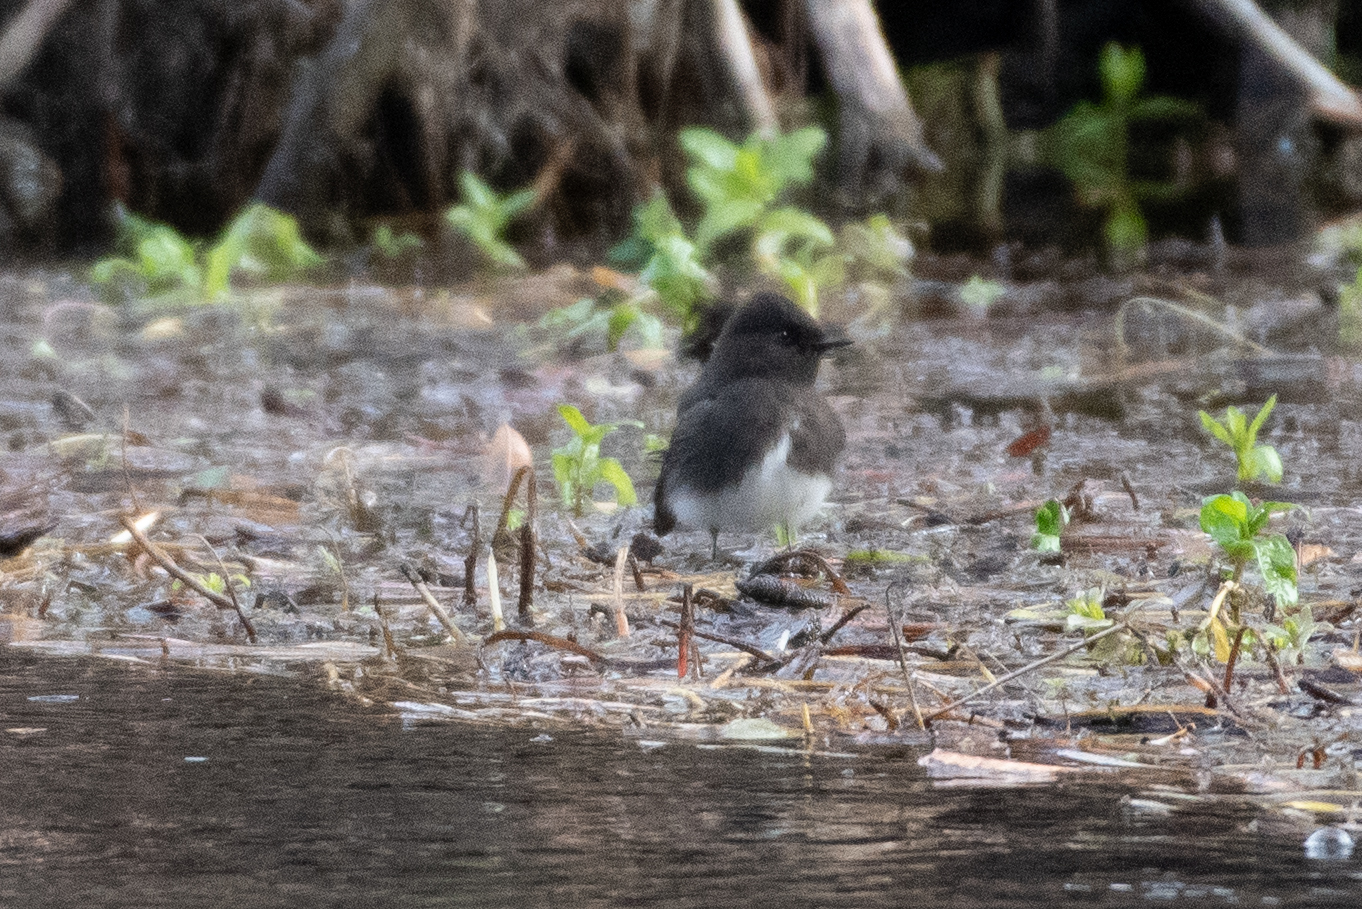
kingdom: Animalia
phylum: Chordata
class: Aves
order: Passeriformes
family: Tyrannidae
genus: Sayornis
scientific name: Sayornis nigricans
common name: Black phoebe
